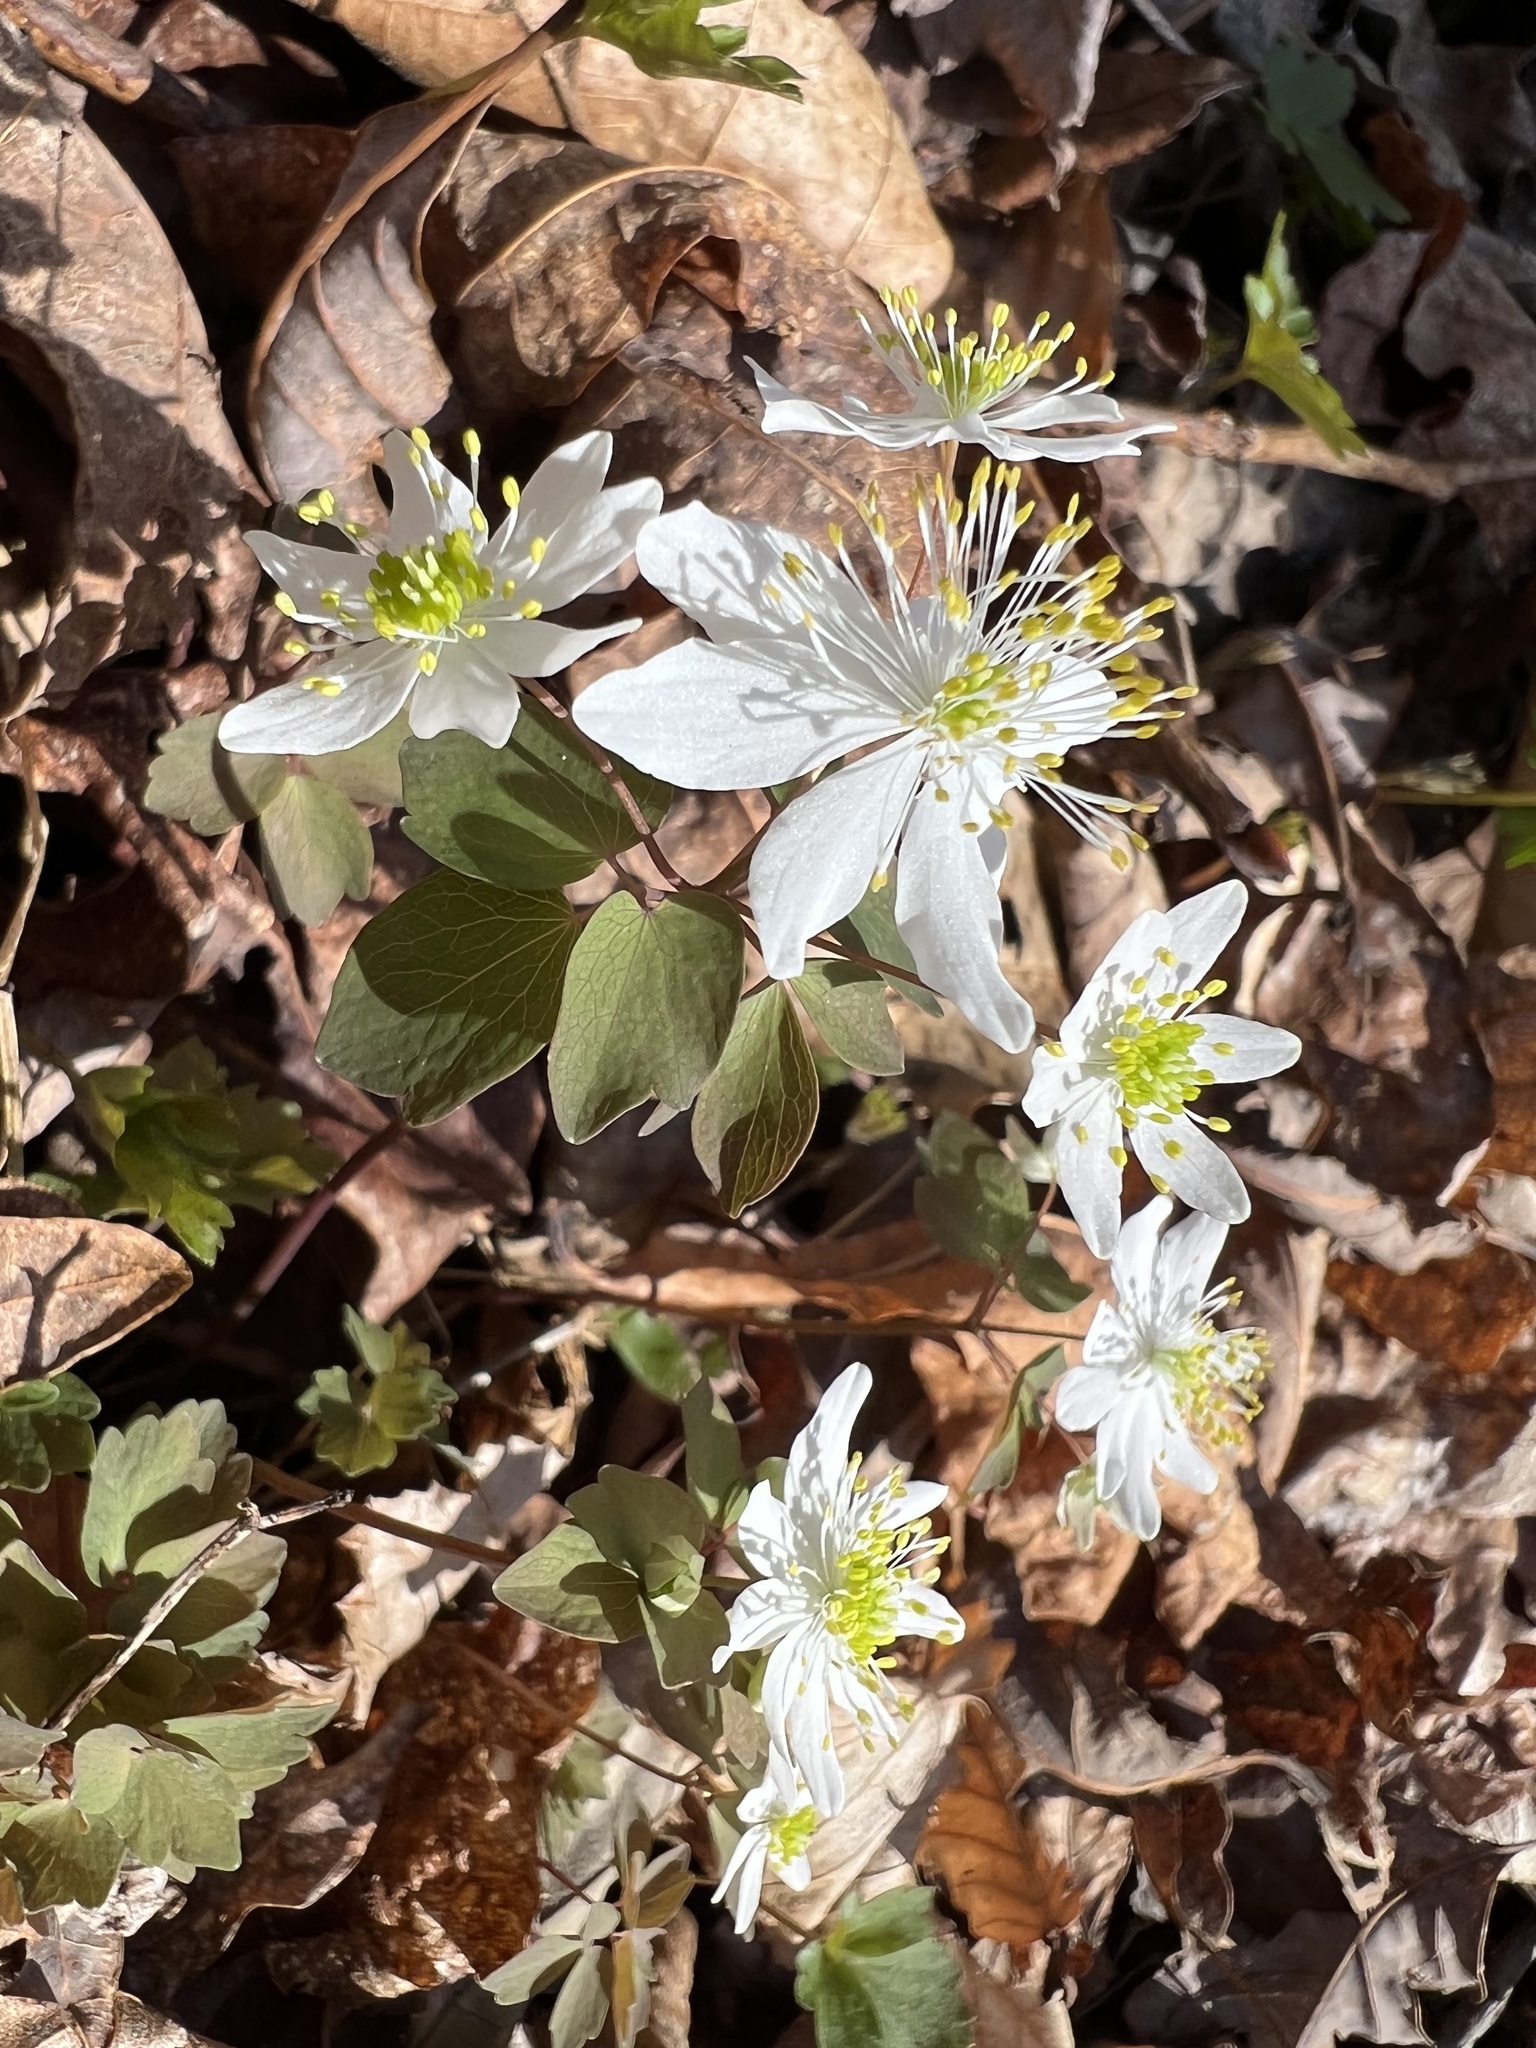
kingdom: Plantae
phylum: Tracheophyta
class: Magnoliopsida
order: Ranunculales
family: Ranunculaceae
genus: Thalictrum
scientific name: Thalictrum thalictroides
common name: Rue-anemone
